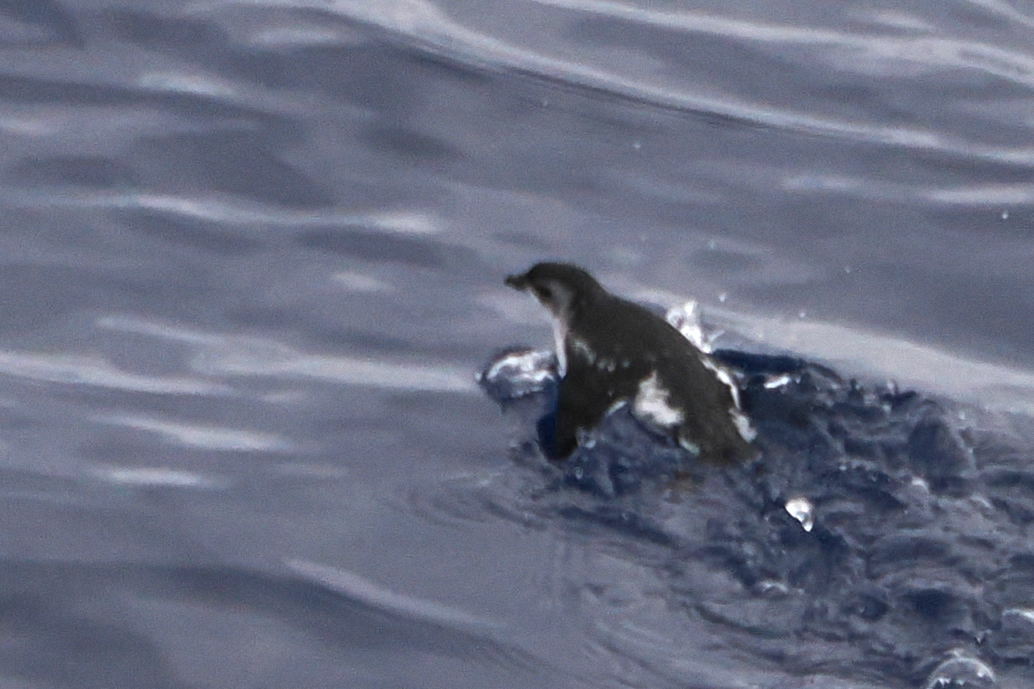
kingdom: Animalia
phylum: Chordata
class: Aves
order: Procellariiformes
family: Pelecanoididae
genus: Pelecanoides
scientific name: Pelecanoides georgicus
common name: South georgia diving-petrel
